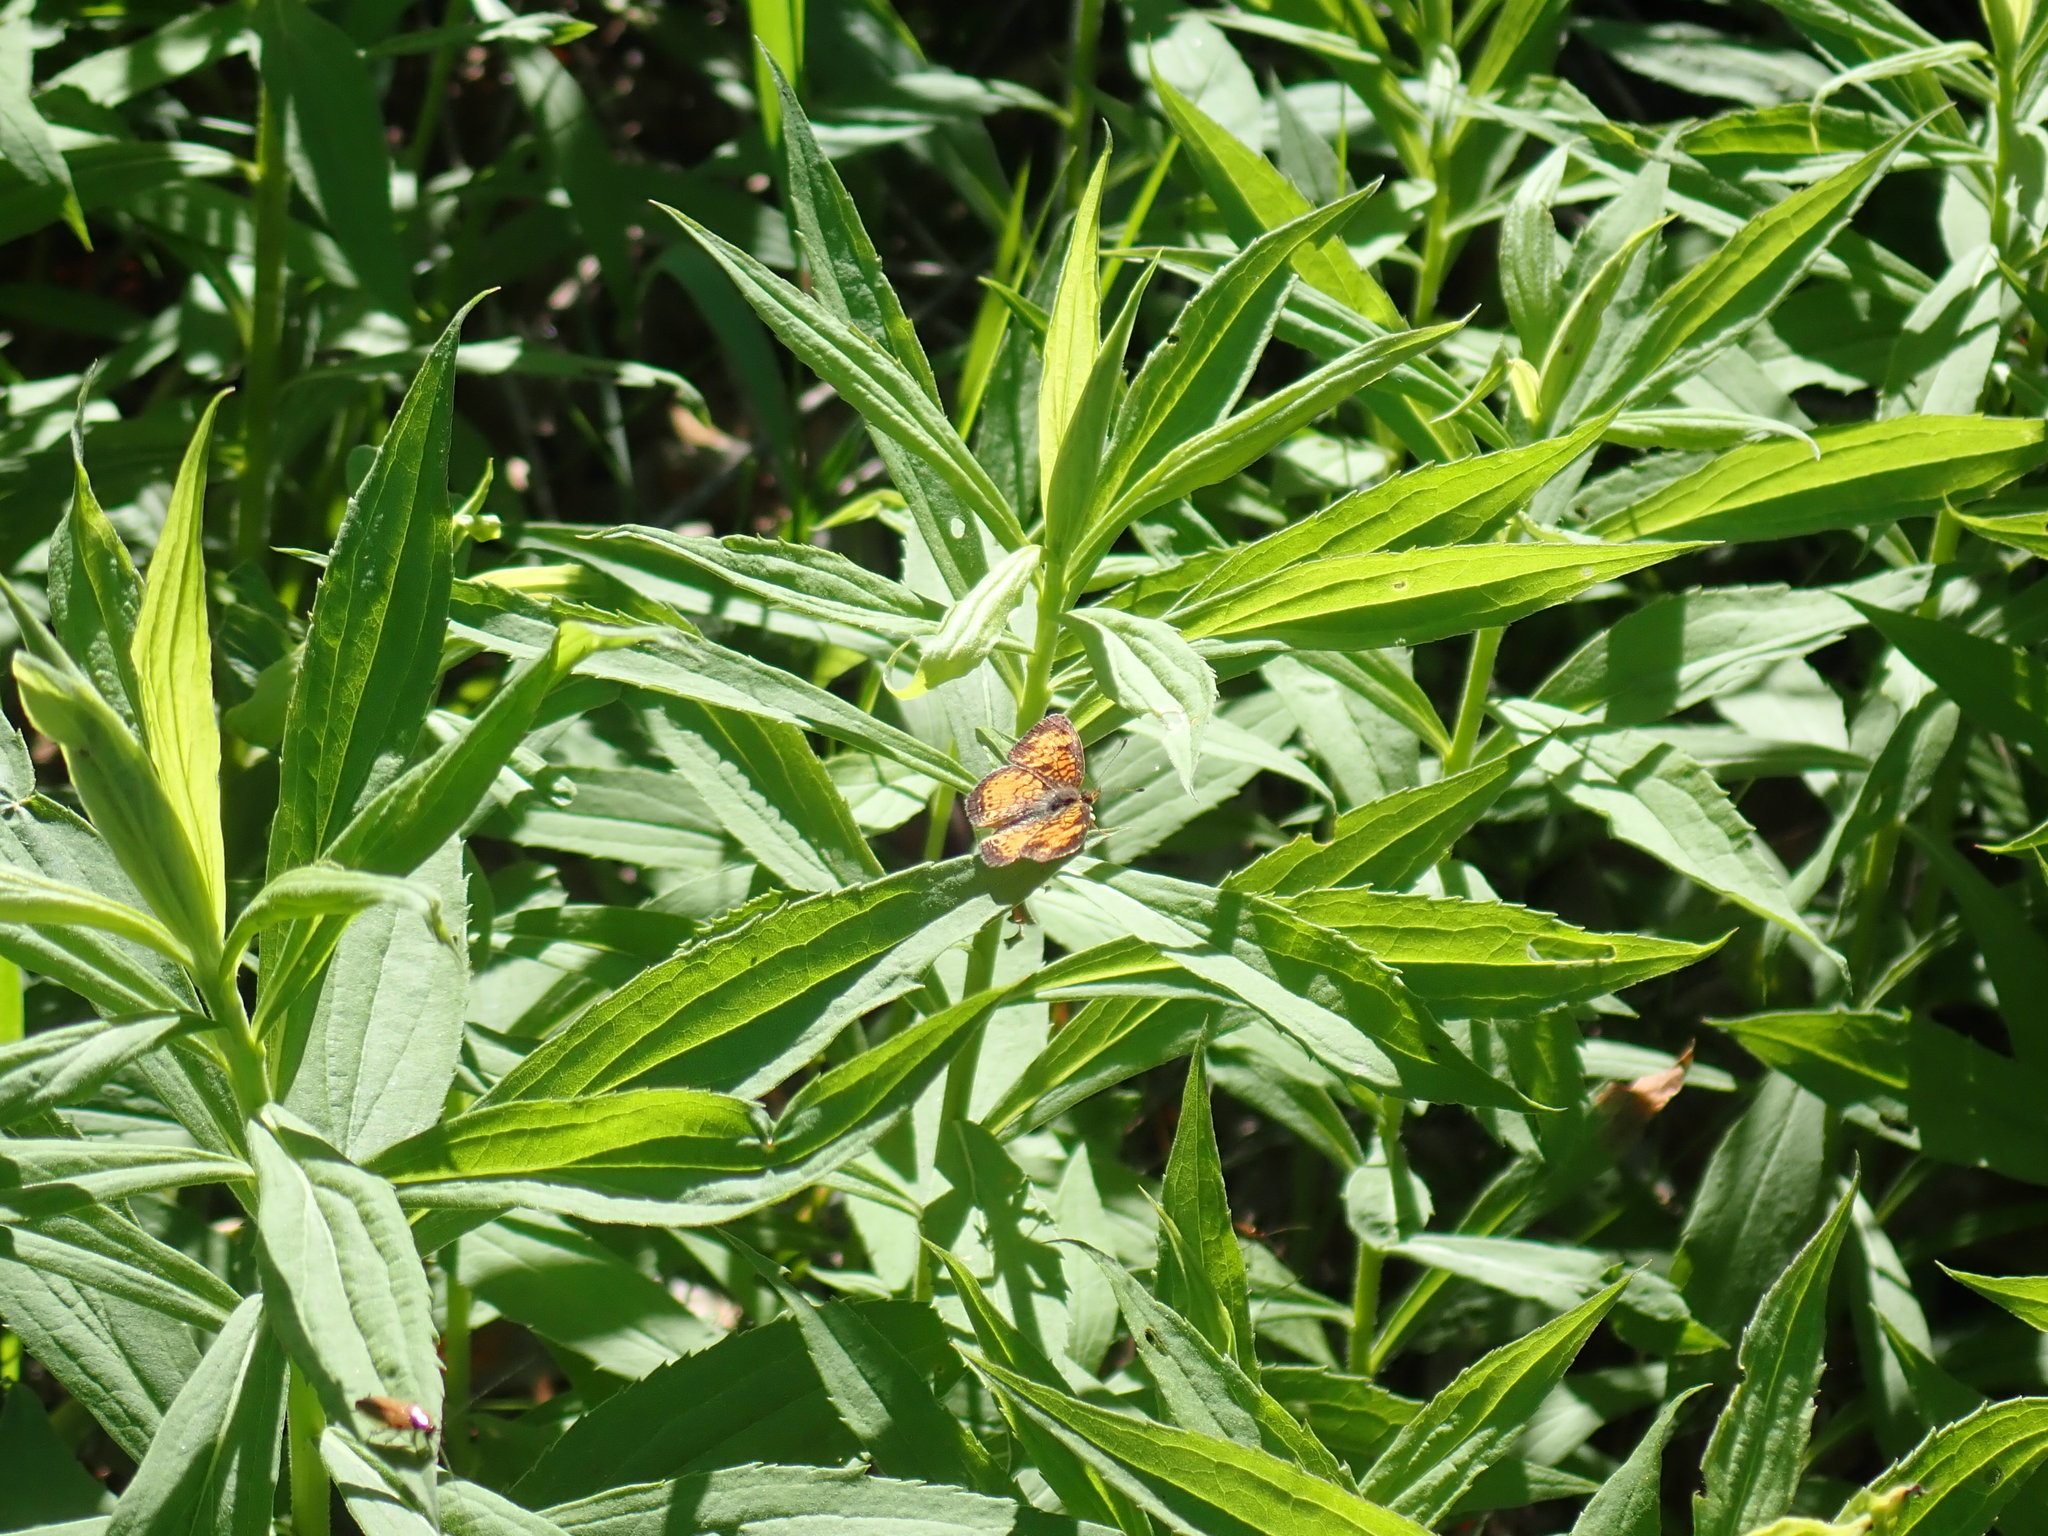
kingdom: Animalia
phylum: Arthropoda
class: Insecta
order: Lepidoptera
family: Nymphalidae
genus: Phyciodes
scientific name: Phyciodes tharos
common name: Pearl crescent
